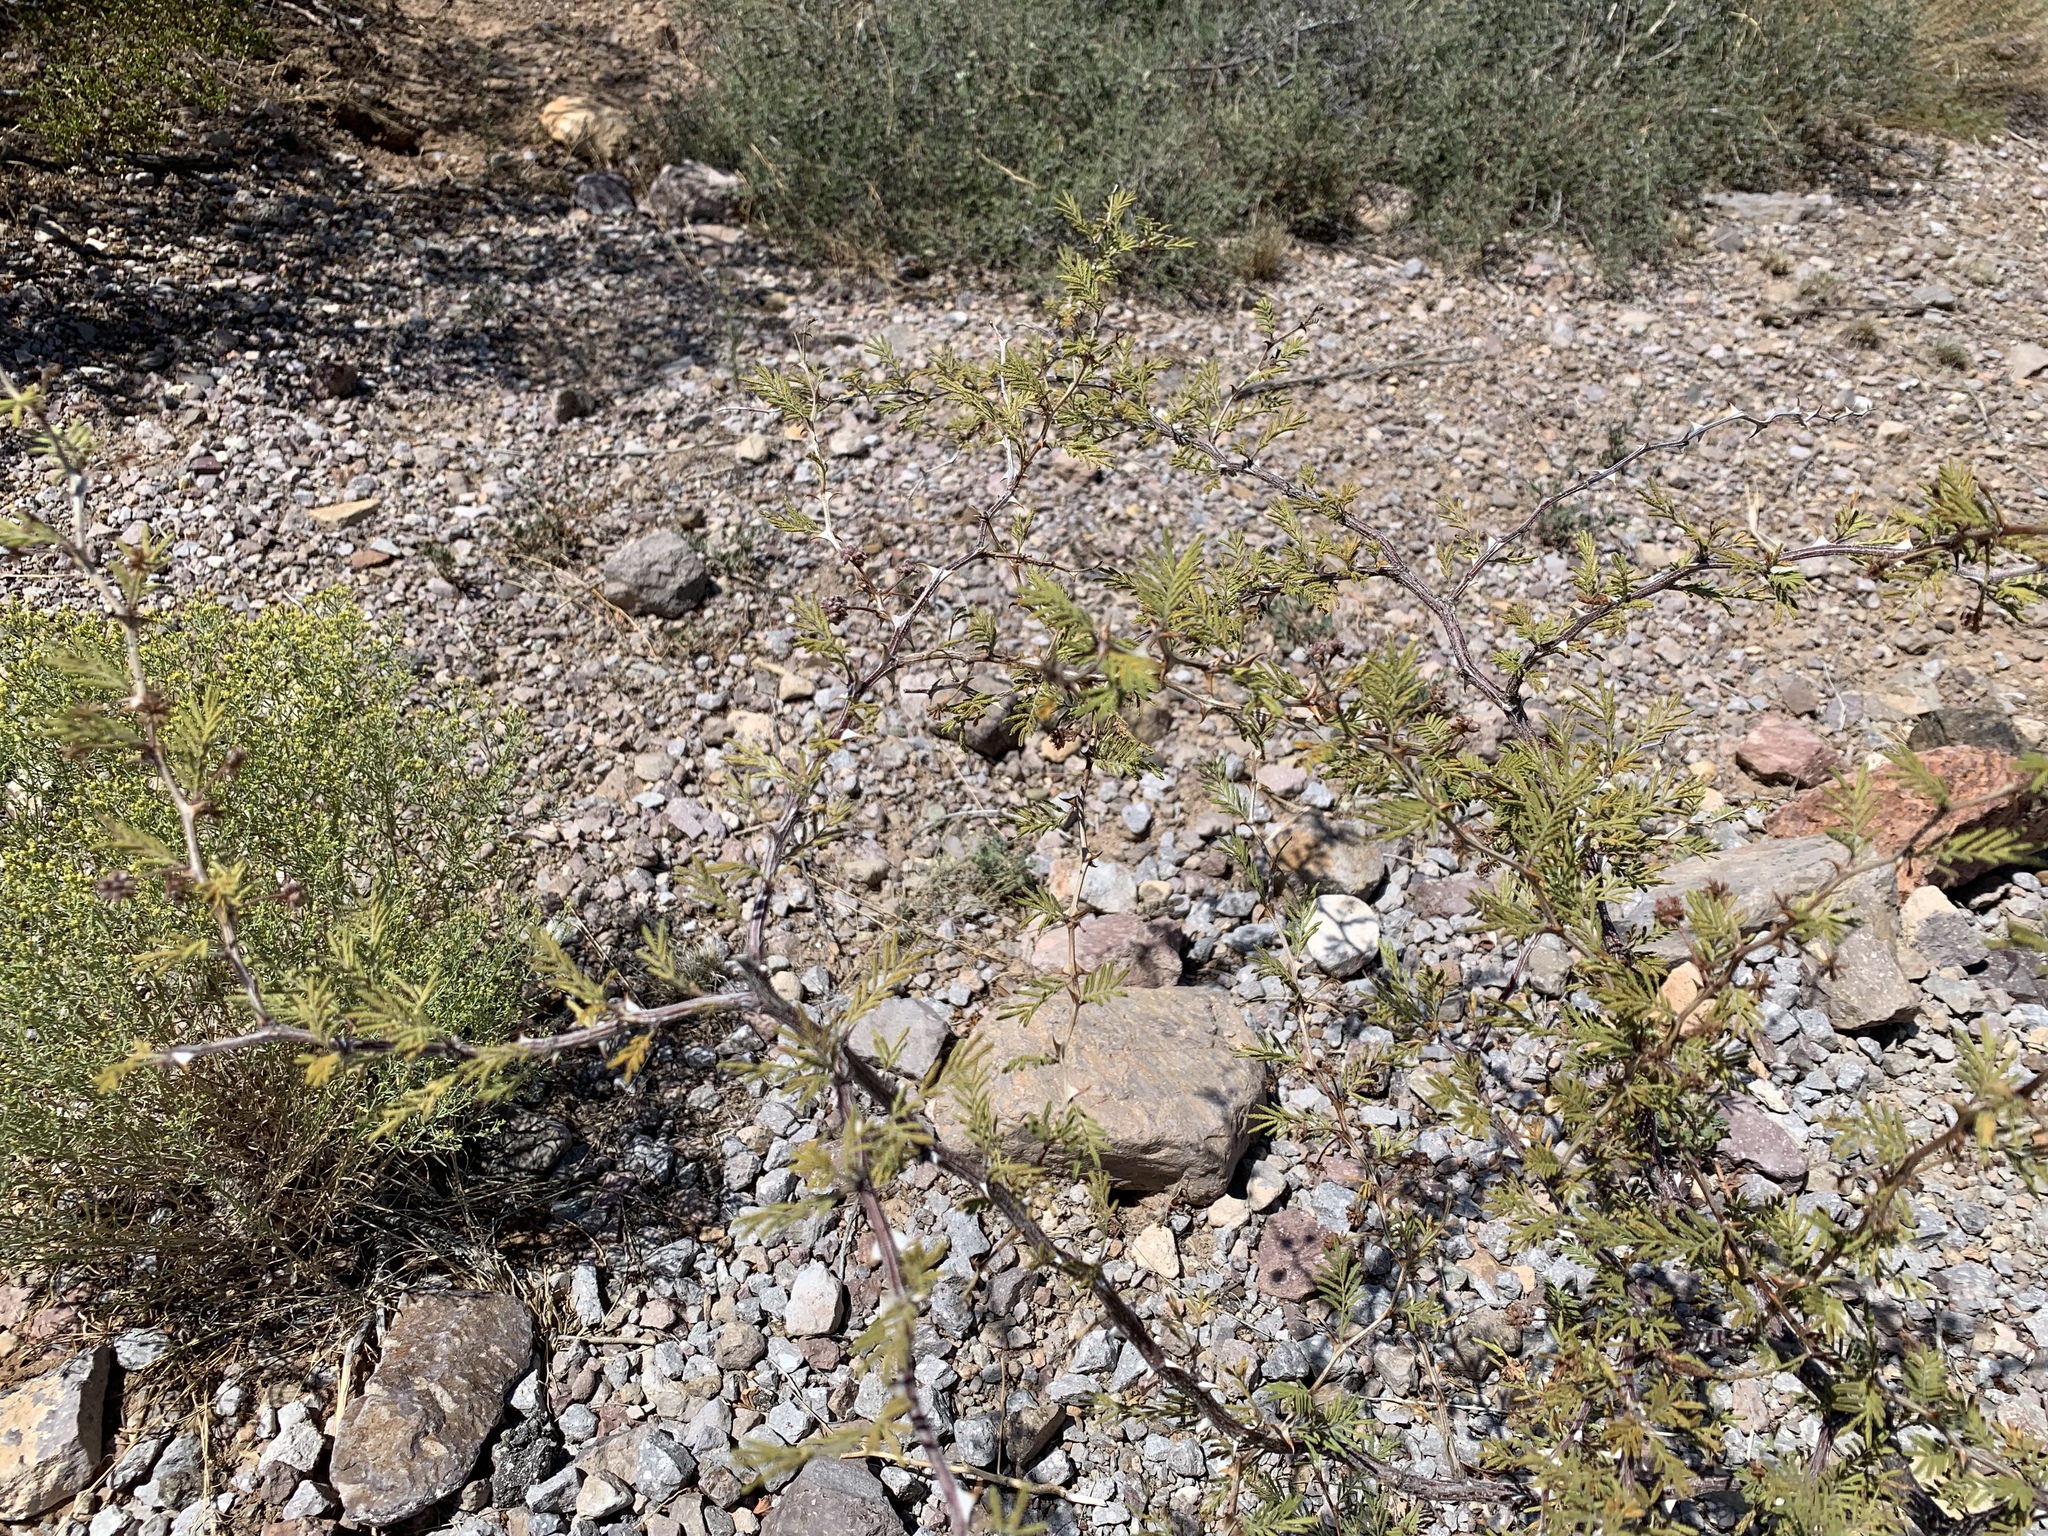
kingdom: Plantae
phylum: Tracheophyta
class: Magnoliopsida
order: Fabales
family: Fabaceae
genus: Mimosa
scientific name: Mimosa aculeaticarpa
